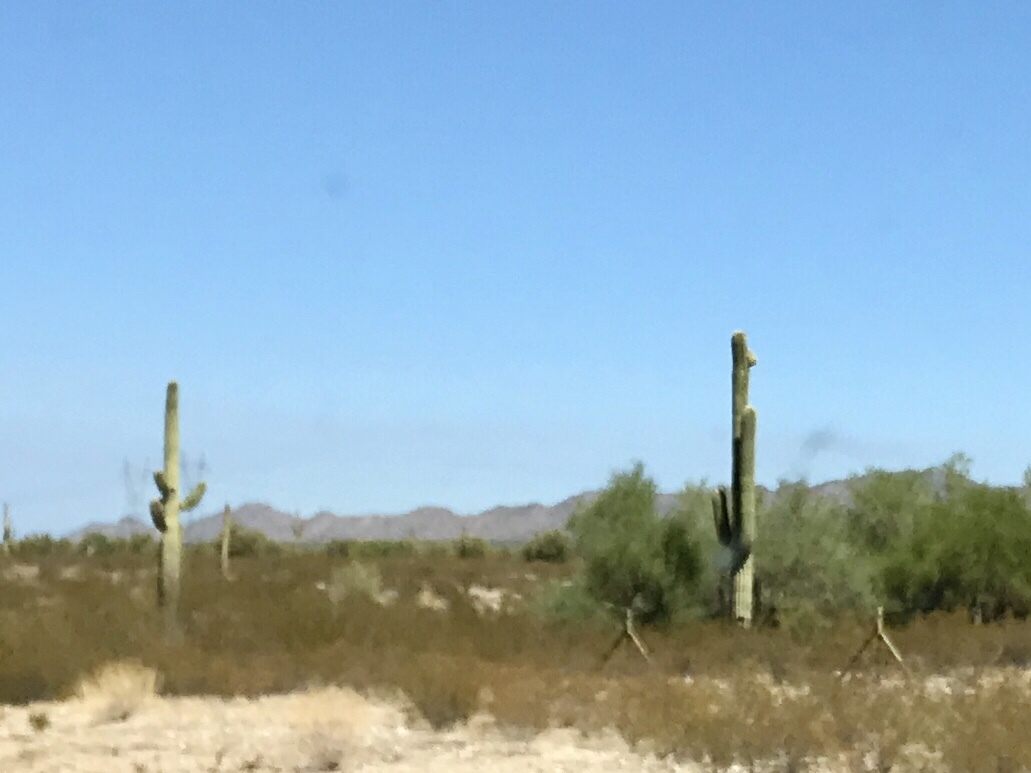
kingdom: Plantae
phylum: Tracheophyta
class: Magnoliopsida
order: Caryophyllales
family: Cactaceae
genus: Carnegiea
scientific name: Carnegiea gigantea
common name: Saguaro
